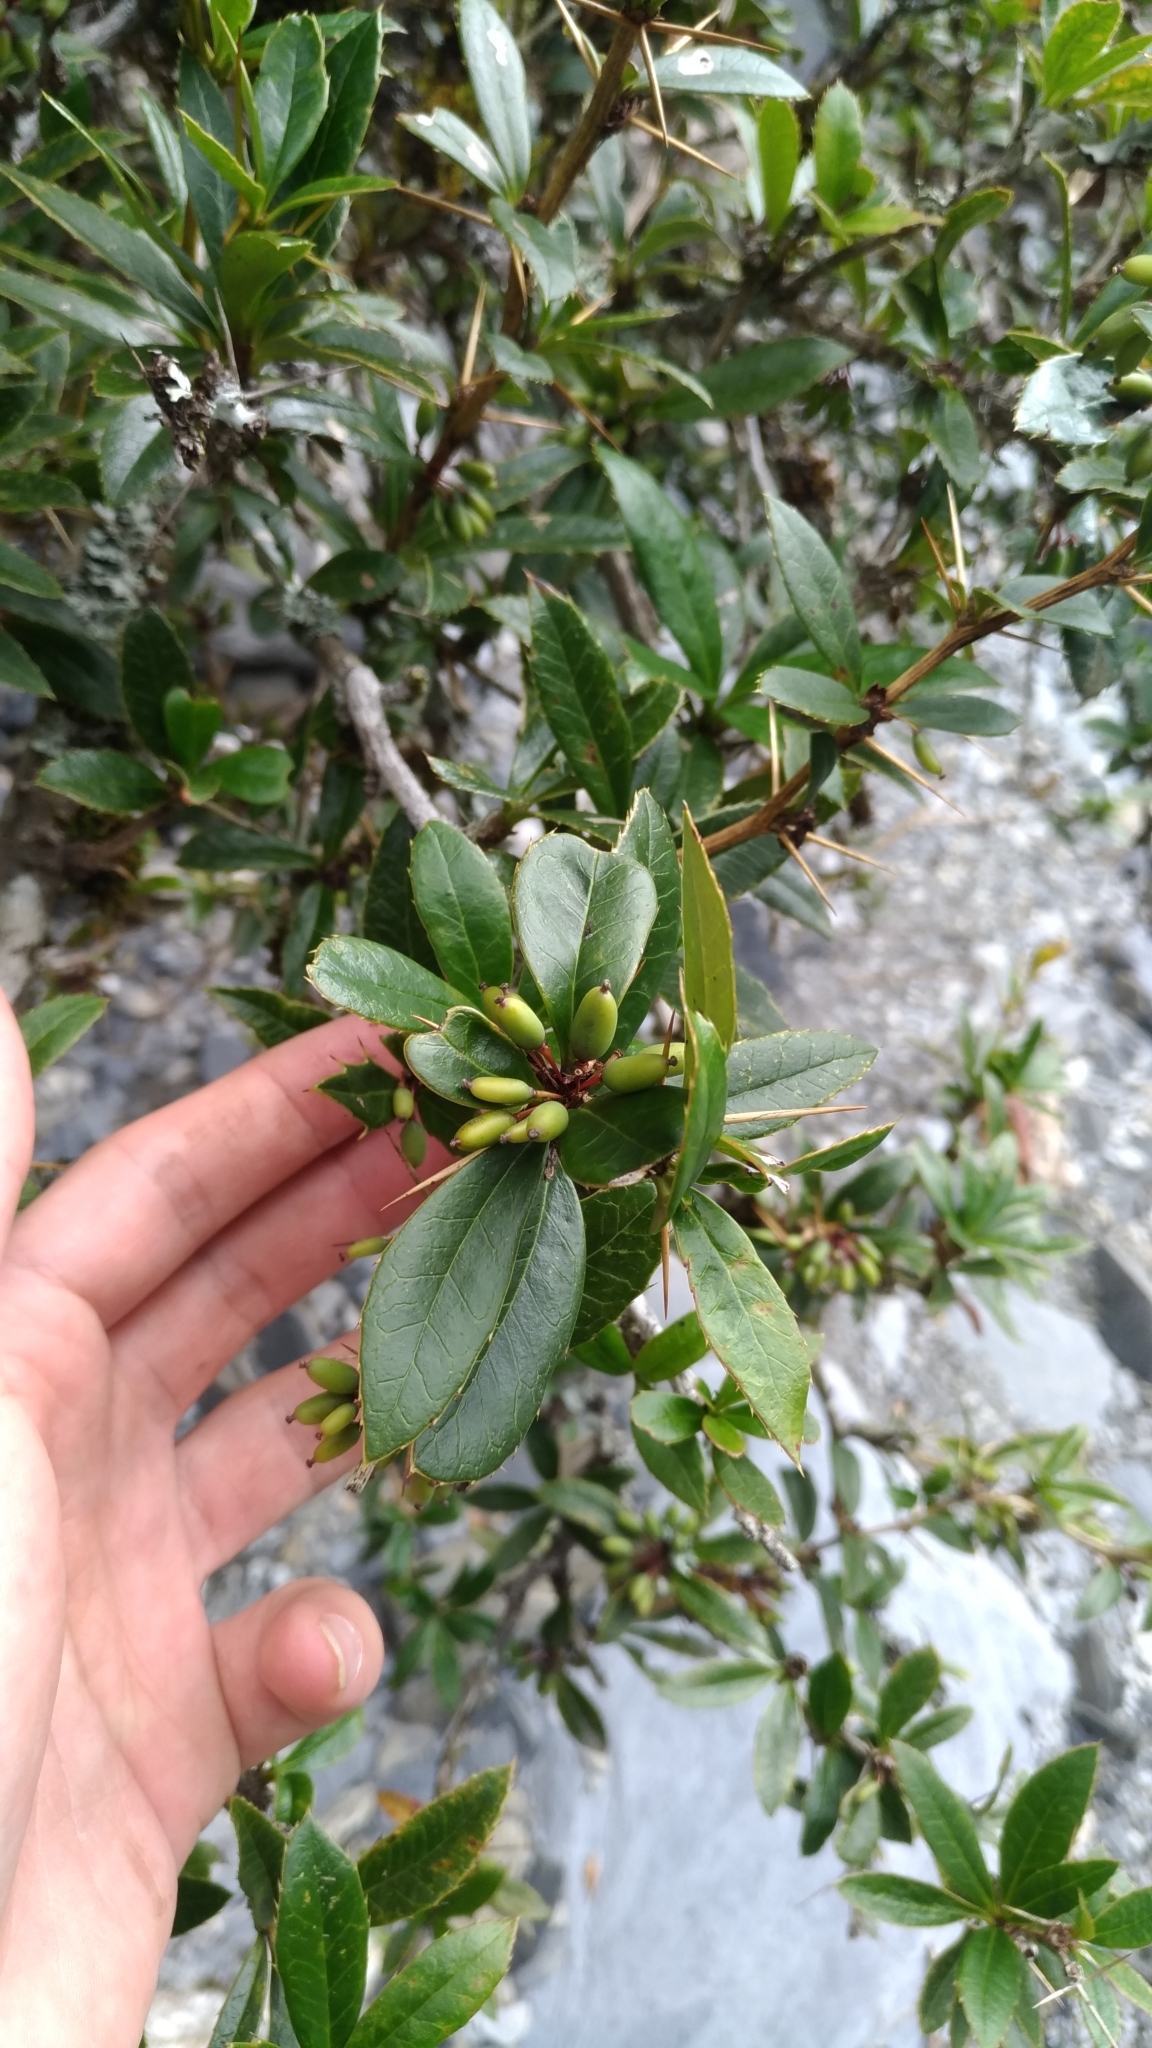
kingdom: Plantae
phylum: Tracheophyta
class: Magnoliopsida
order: Ranunculales
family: Berberidaceae
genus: Berberis
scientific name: Berberis kawakamii
